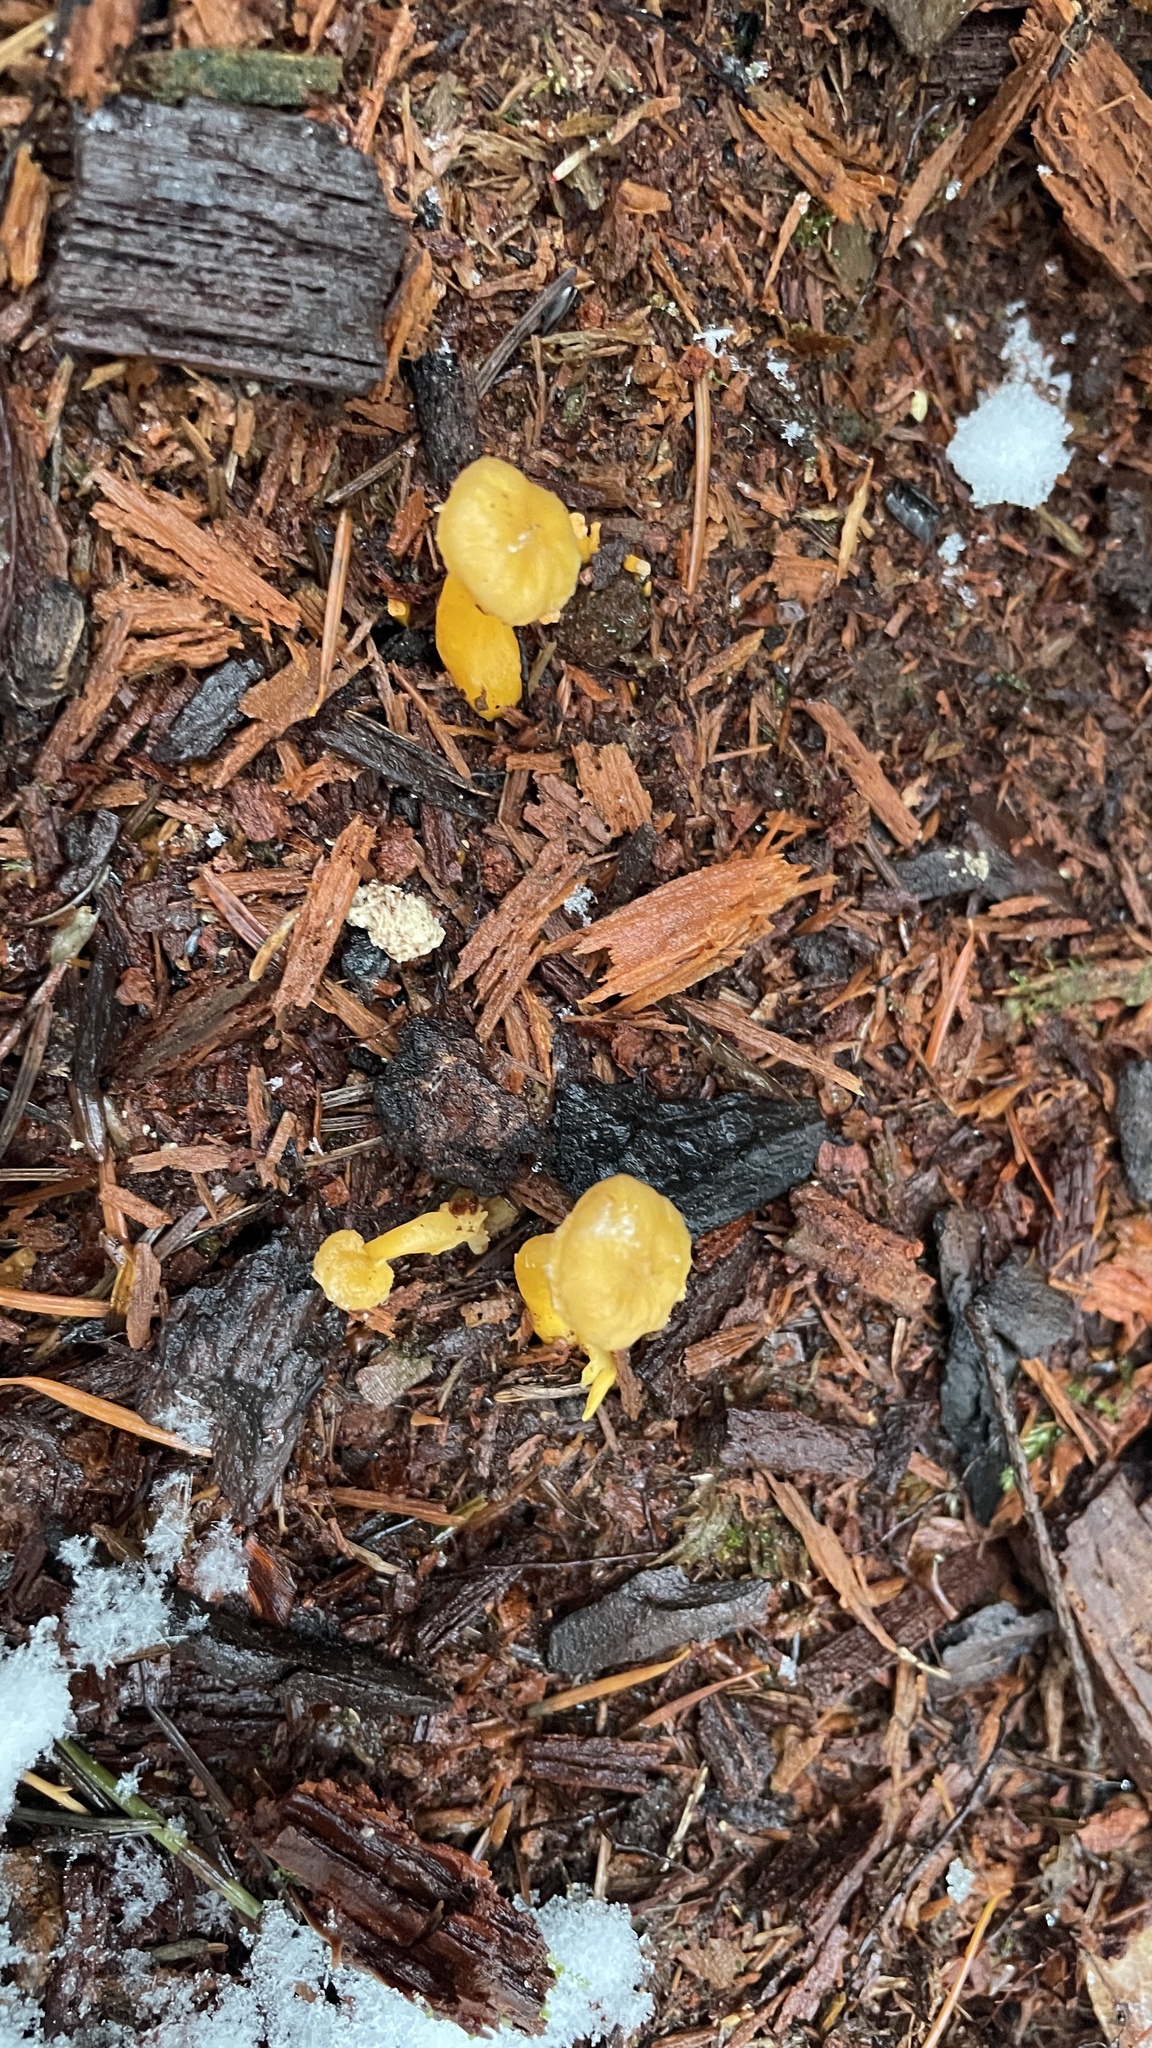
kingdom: Fungi
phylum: Basidiomycota
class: Agaricomycetes
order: Cantharellales
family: Hydnaceae
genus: Craterellus
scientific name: Craterellus tubaeformis
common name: Yellowfoot
